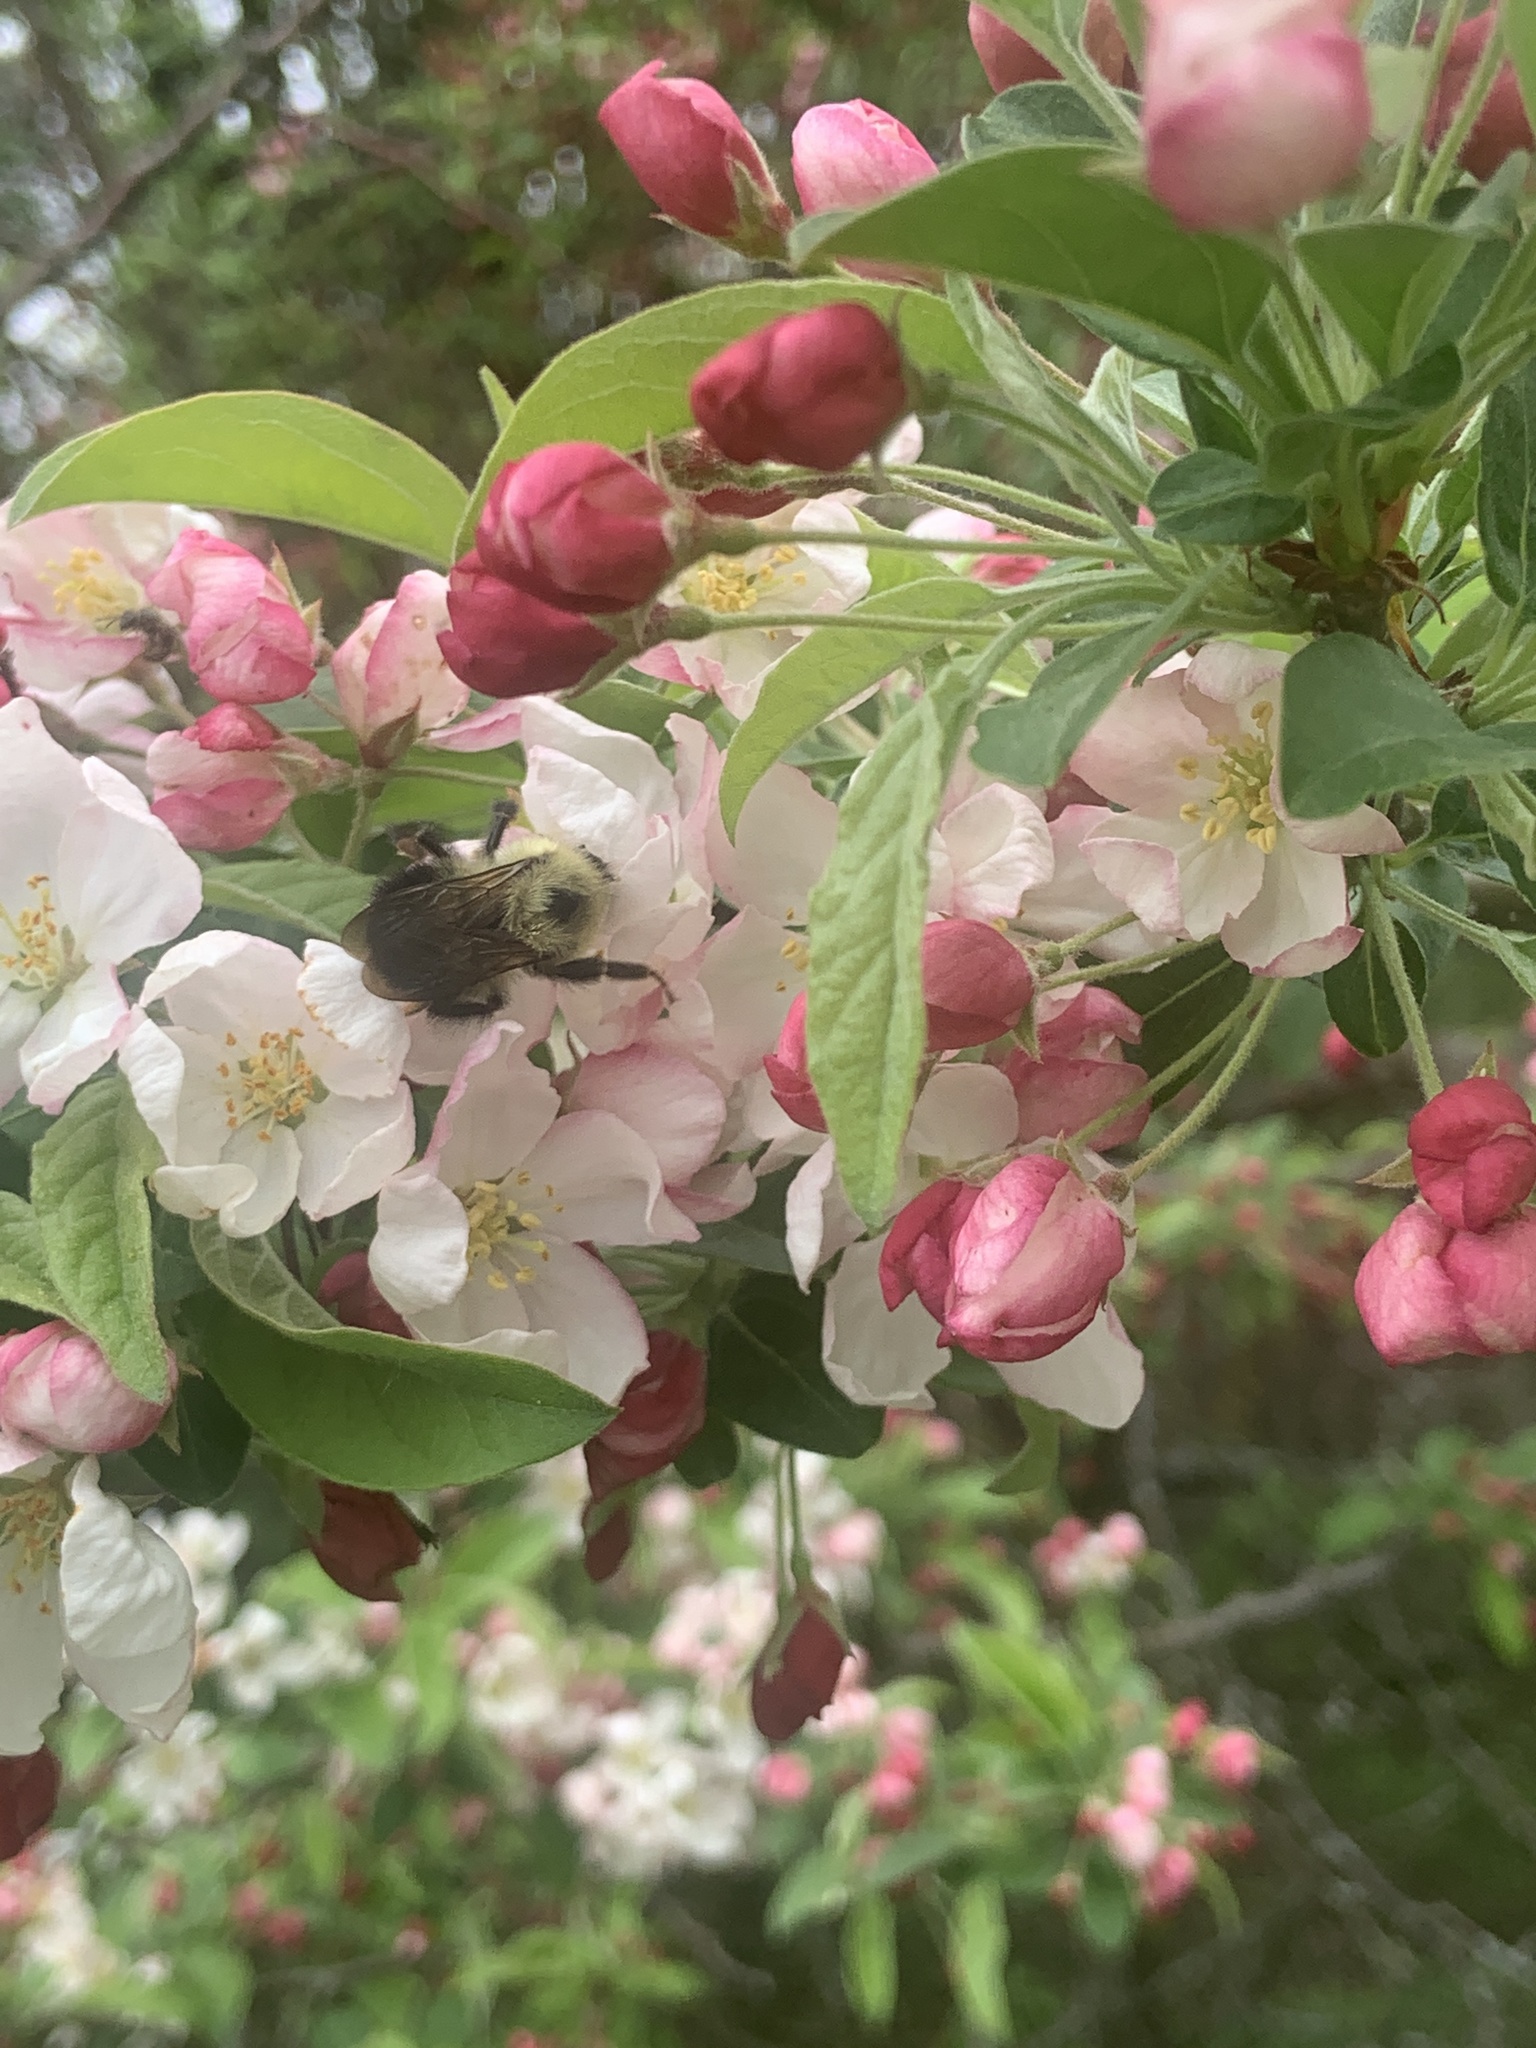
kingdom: Animalia
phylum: Arthropoda
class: Insecta
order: Hymenoptera
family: Apidae
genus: Bombus
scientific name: Bombus bimaculatus
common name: Two-spotted bumble bee
